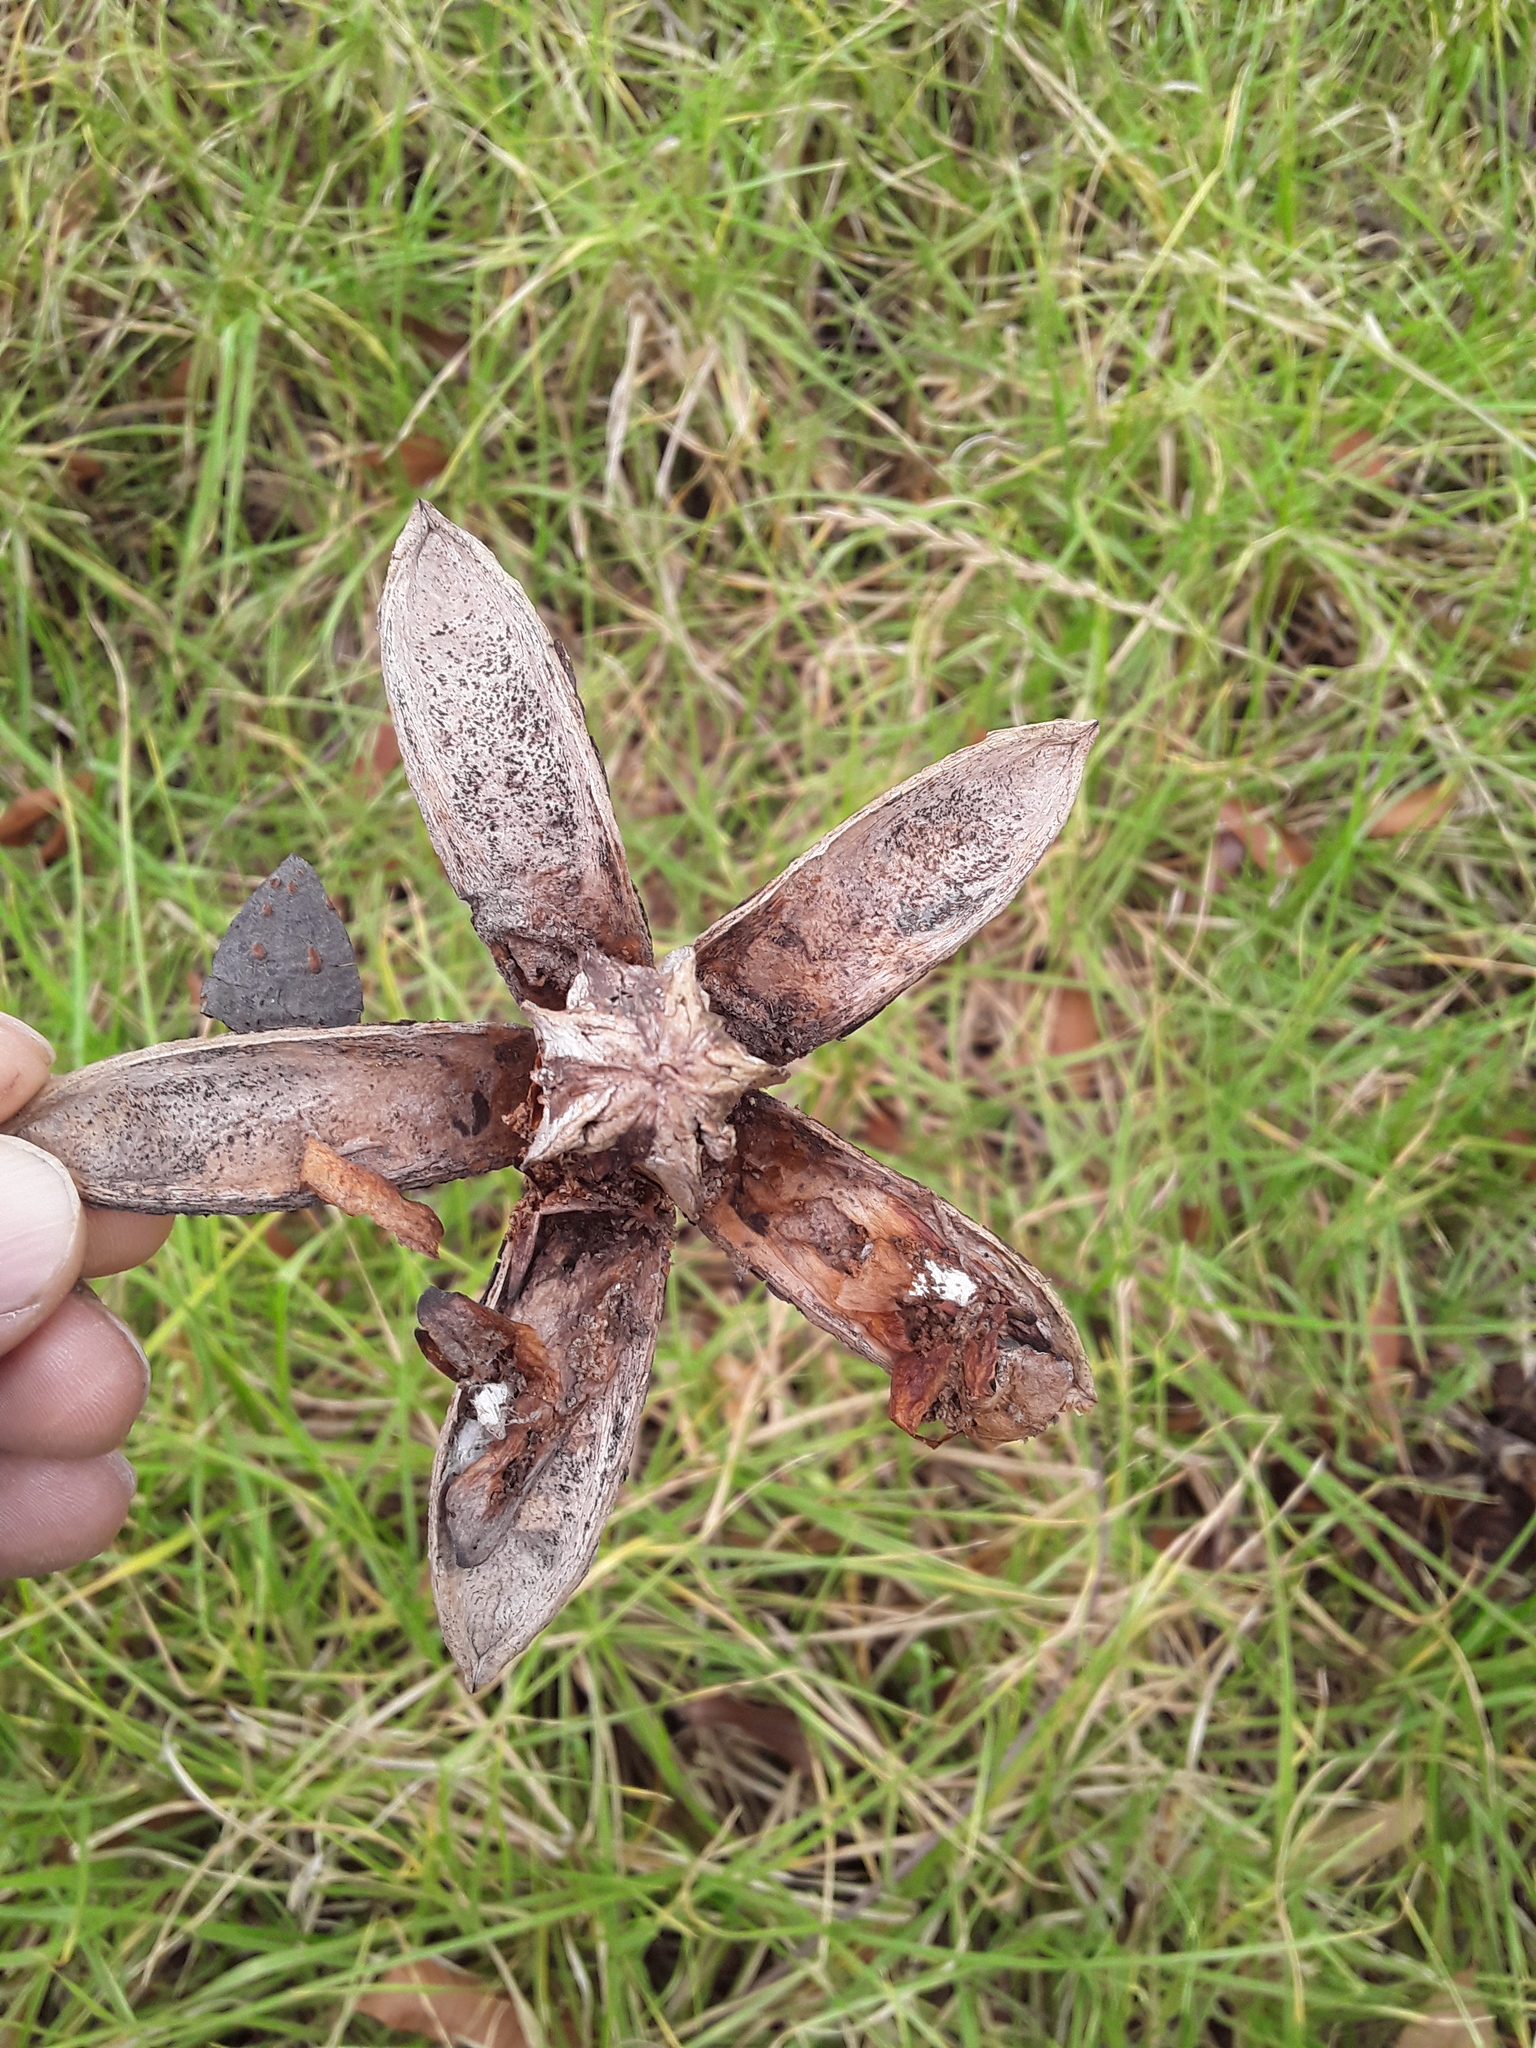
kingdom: Plantae
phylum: Tracheophyta
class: Magnoliopsida
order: Sapindales
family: Meliaceae
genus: Cedrela
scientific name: Cedrela montana
